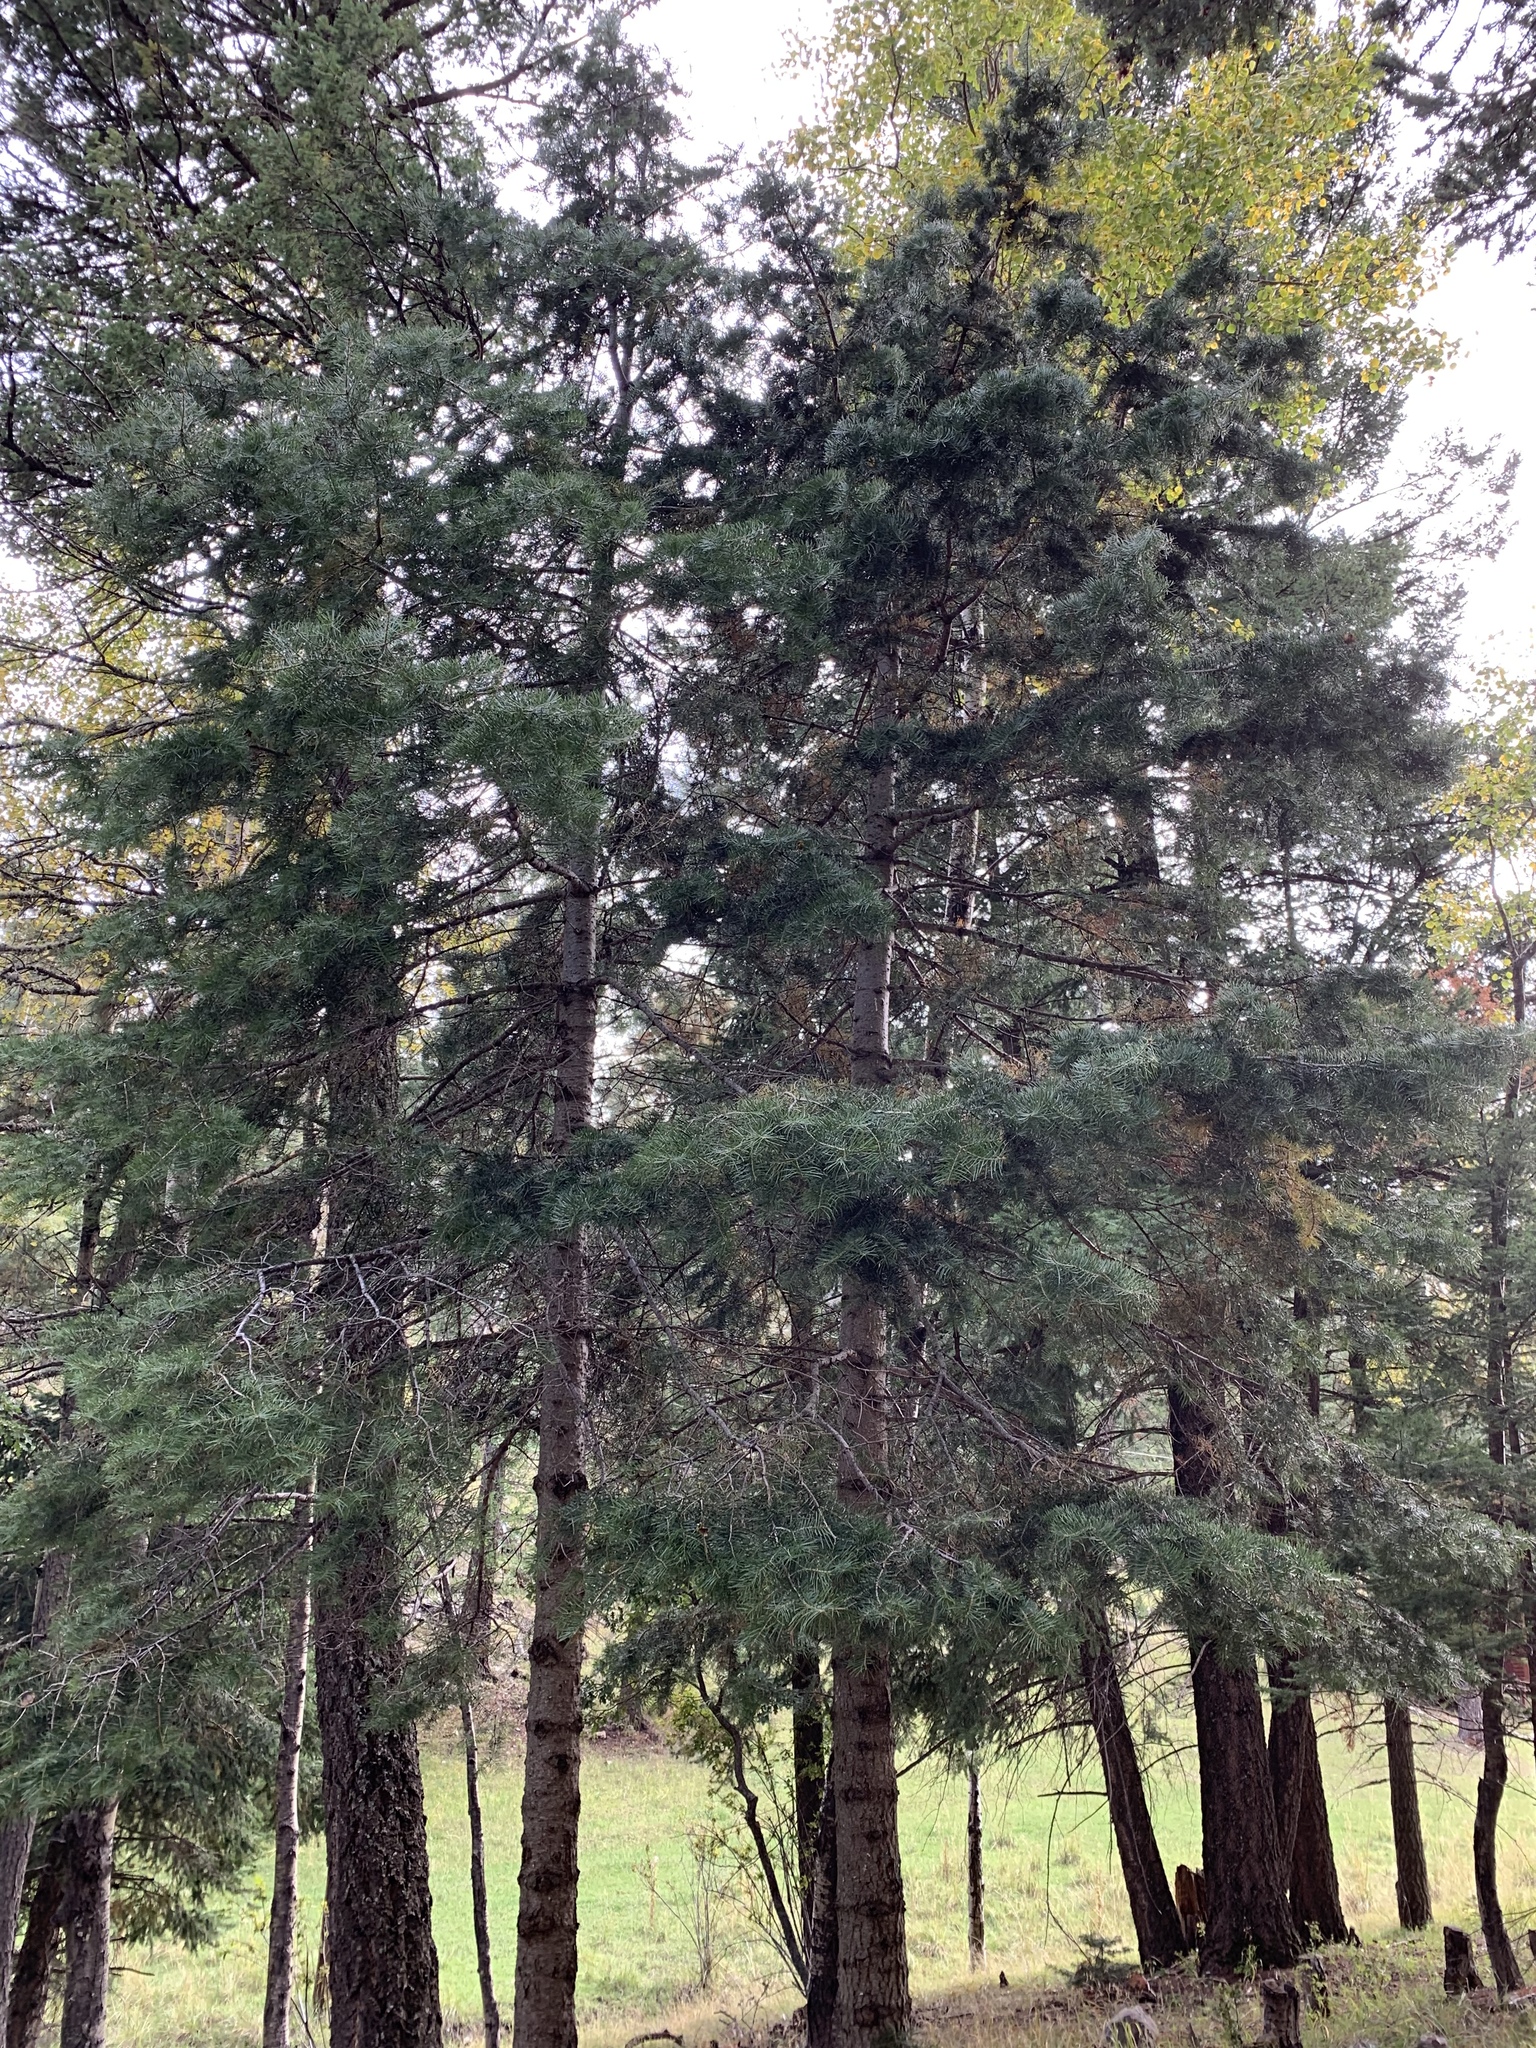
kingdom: Plantae
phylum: Tracheophyta
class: Pinopsida
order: Pinales
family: Pinaceae
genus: Abies
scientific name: Abies concolor
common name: Colorado fir
